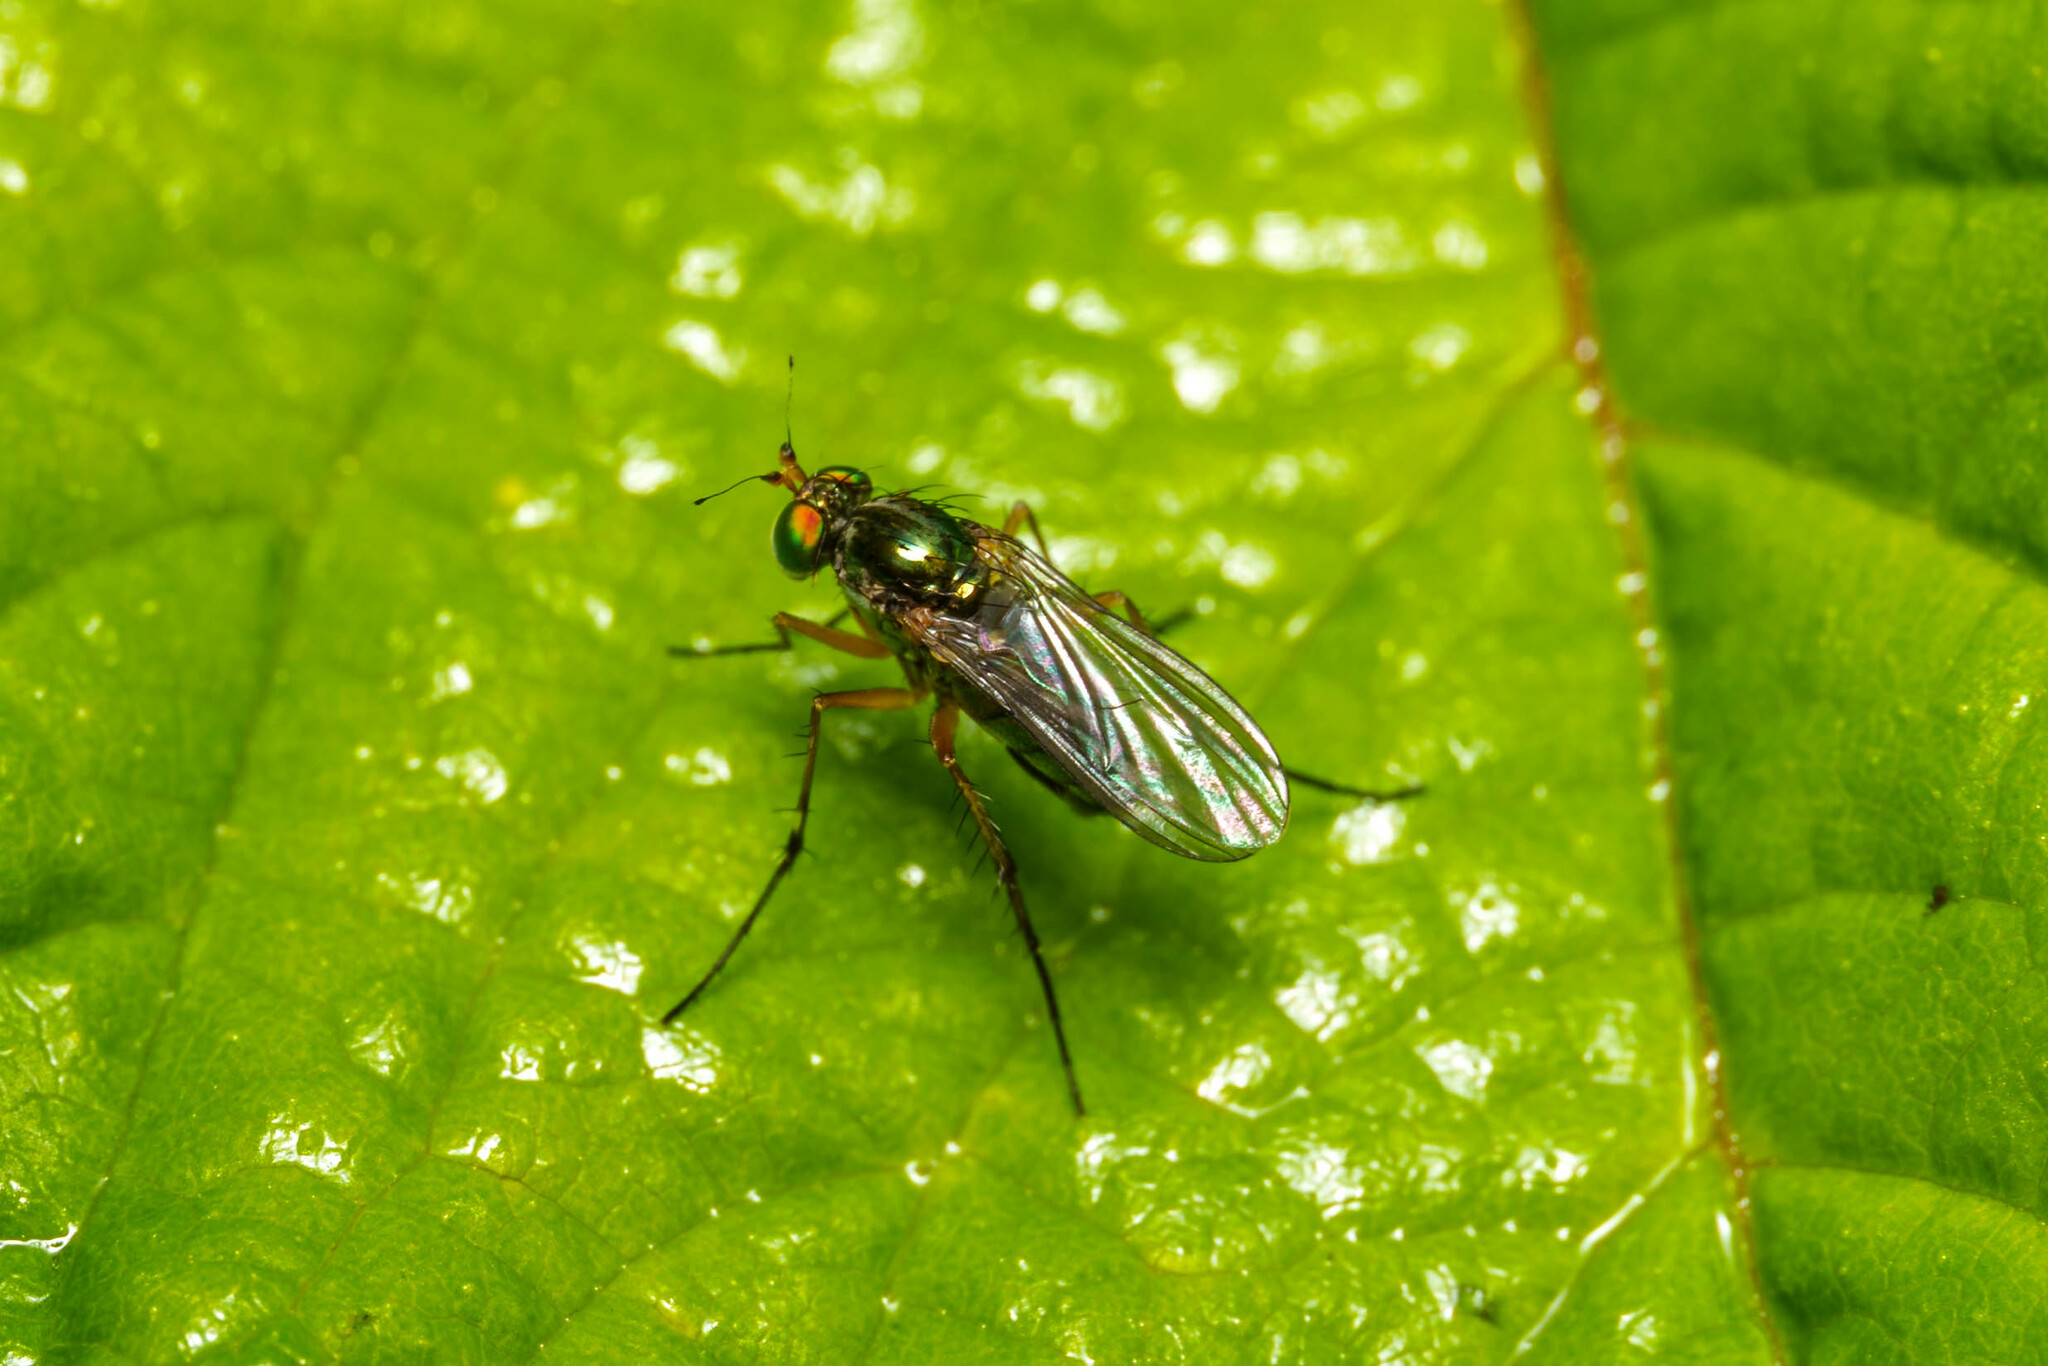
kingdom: Animalia
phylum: Arthropoda
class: Insecta
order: Diptera
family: Dolichopodidae
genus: Dolichopus
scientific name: Dolichopus hastatus
